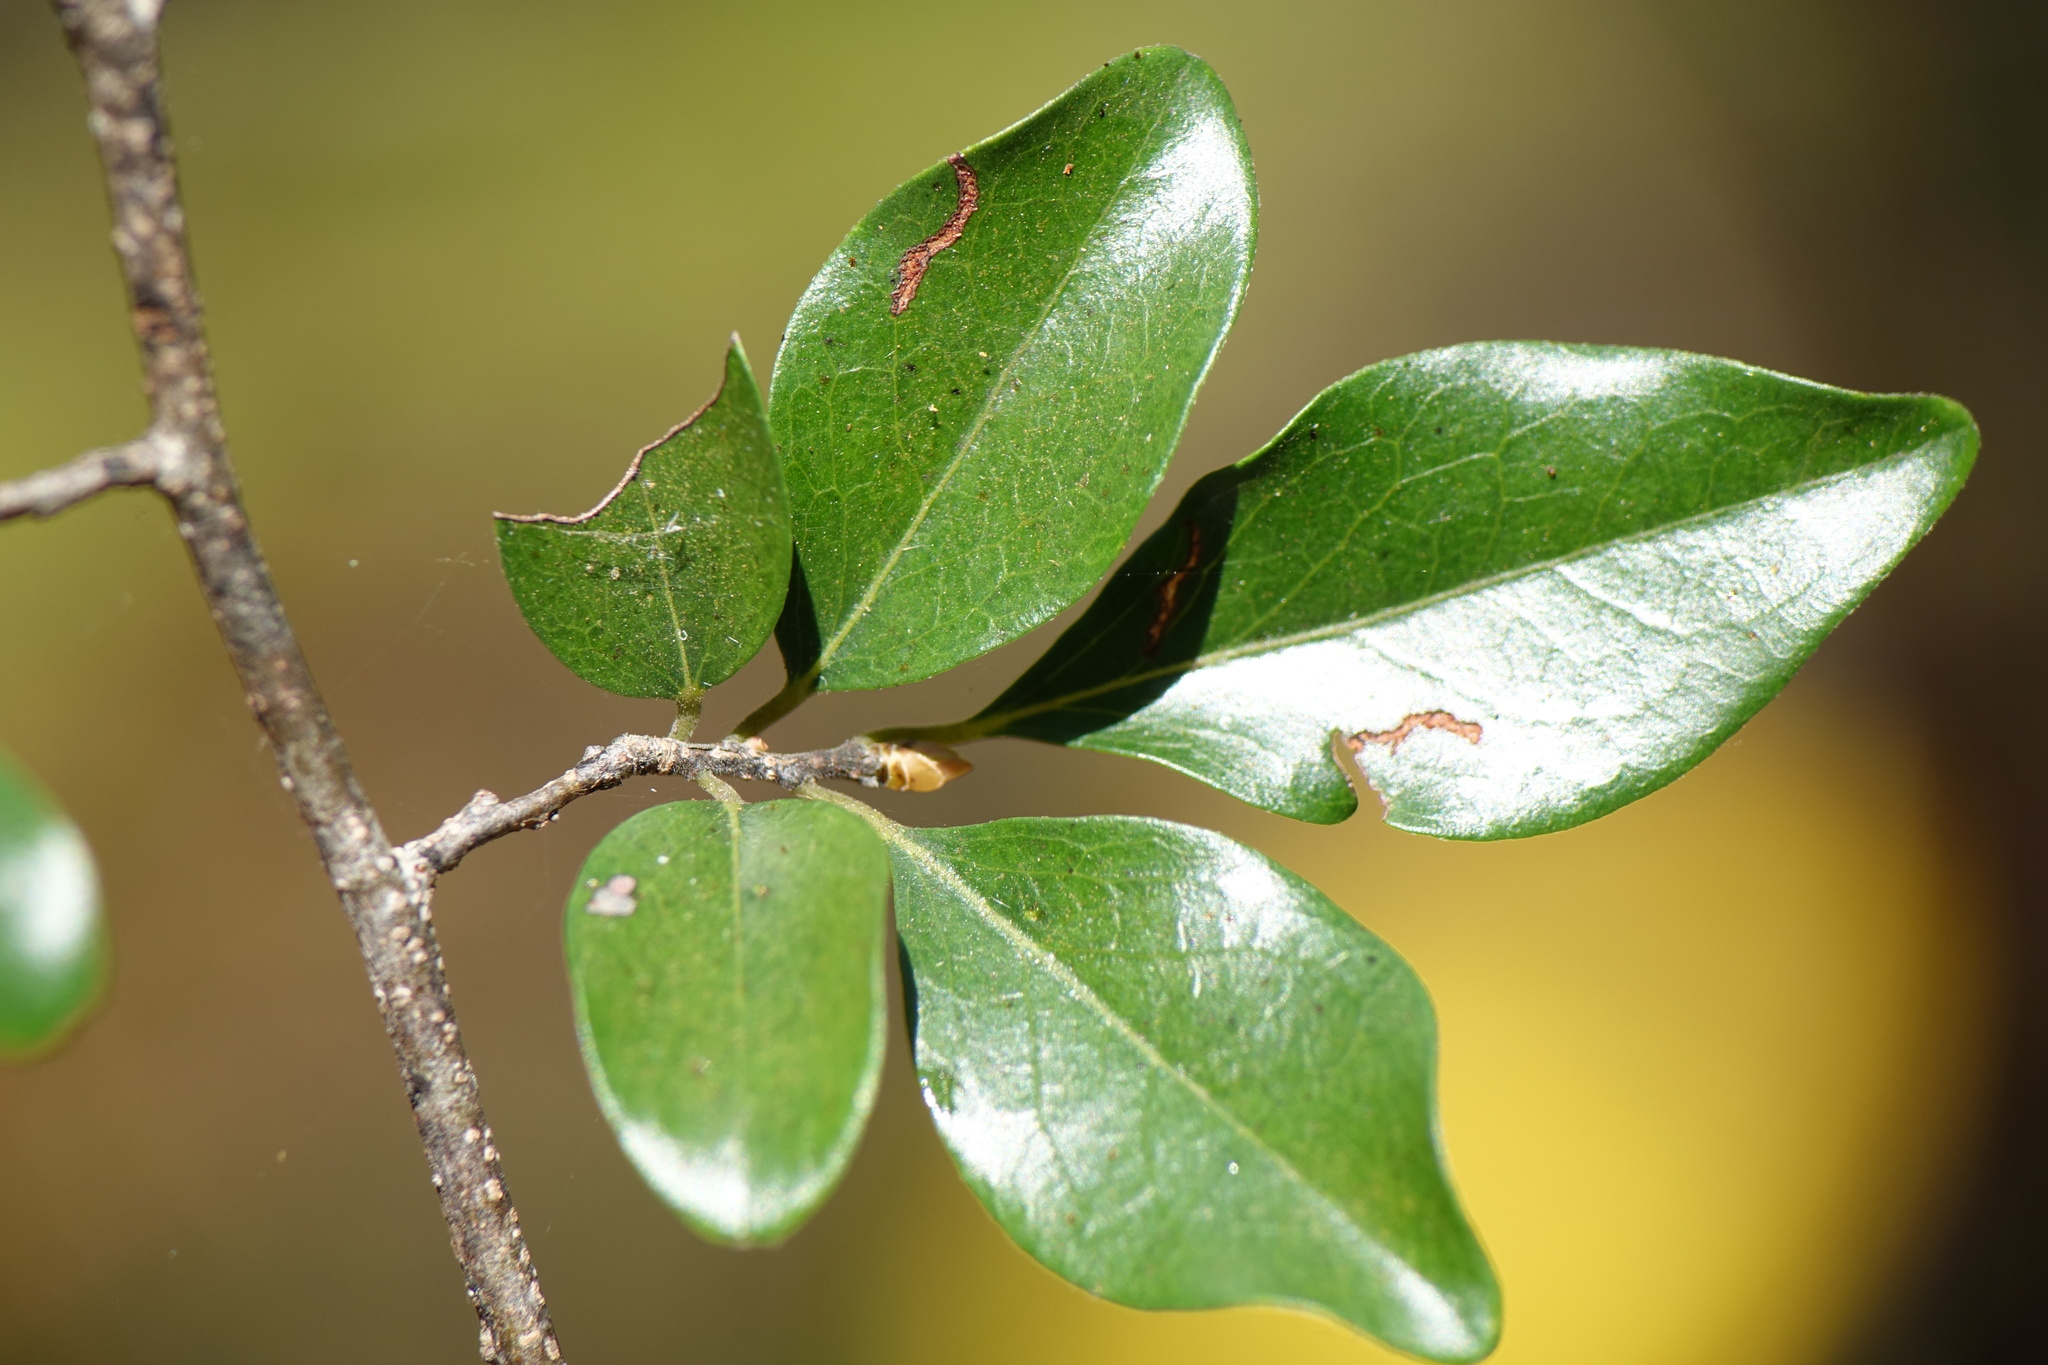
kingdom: Plantae
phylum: Tracheophyta
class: Magnoliopsida
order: Ericales
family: Ebenaceae
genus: Diospyros
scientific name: Diospyros tropophylla
